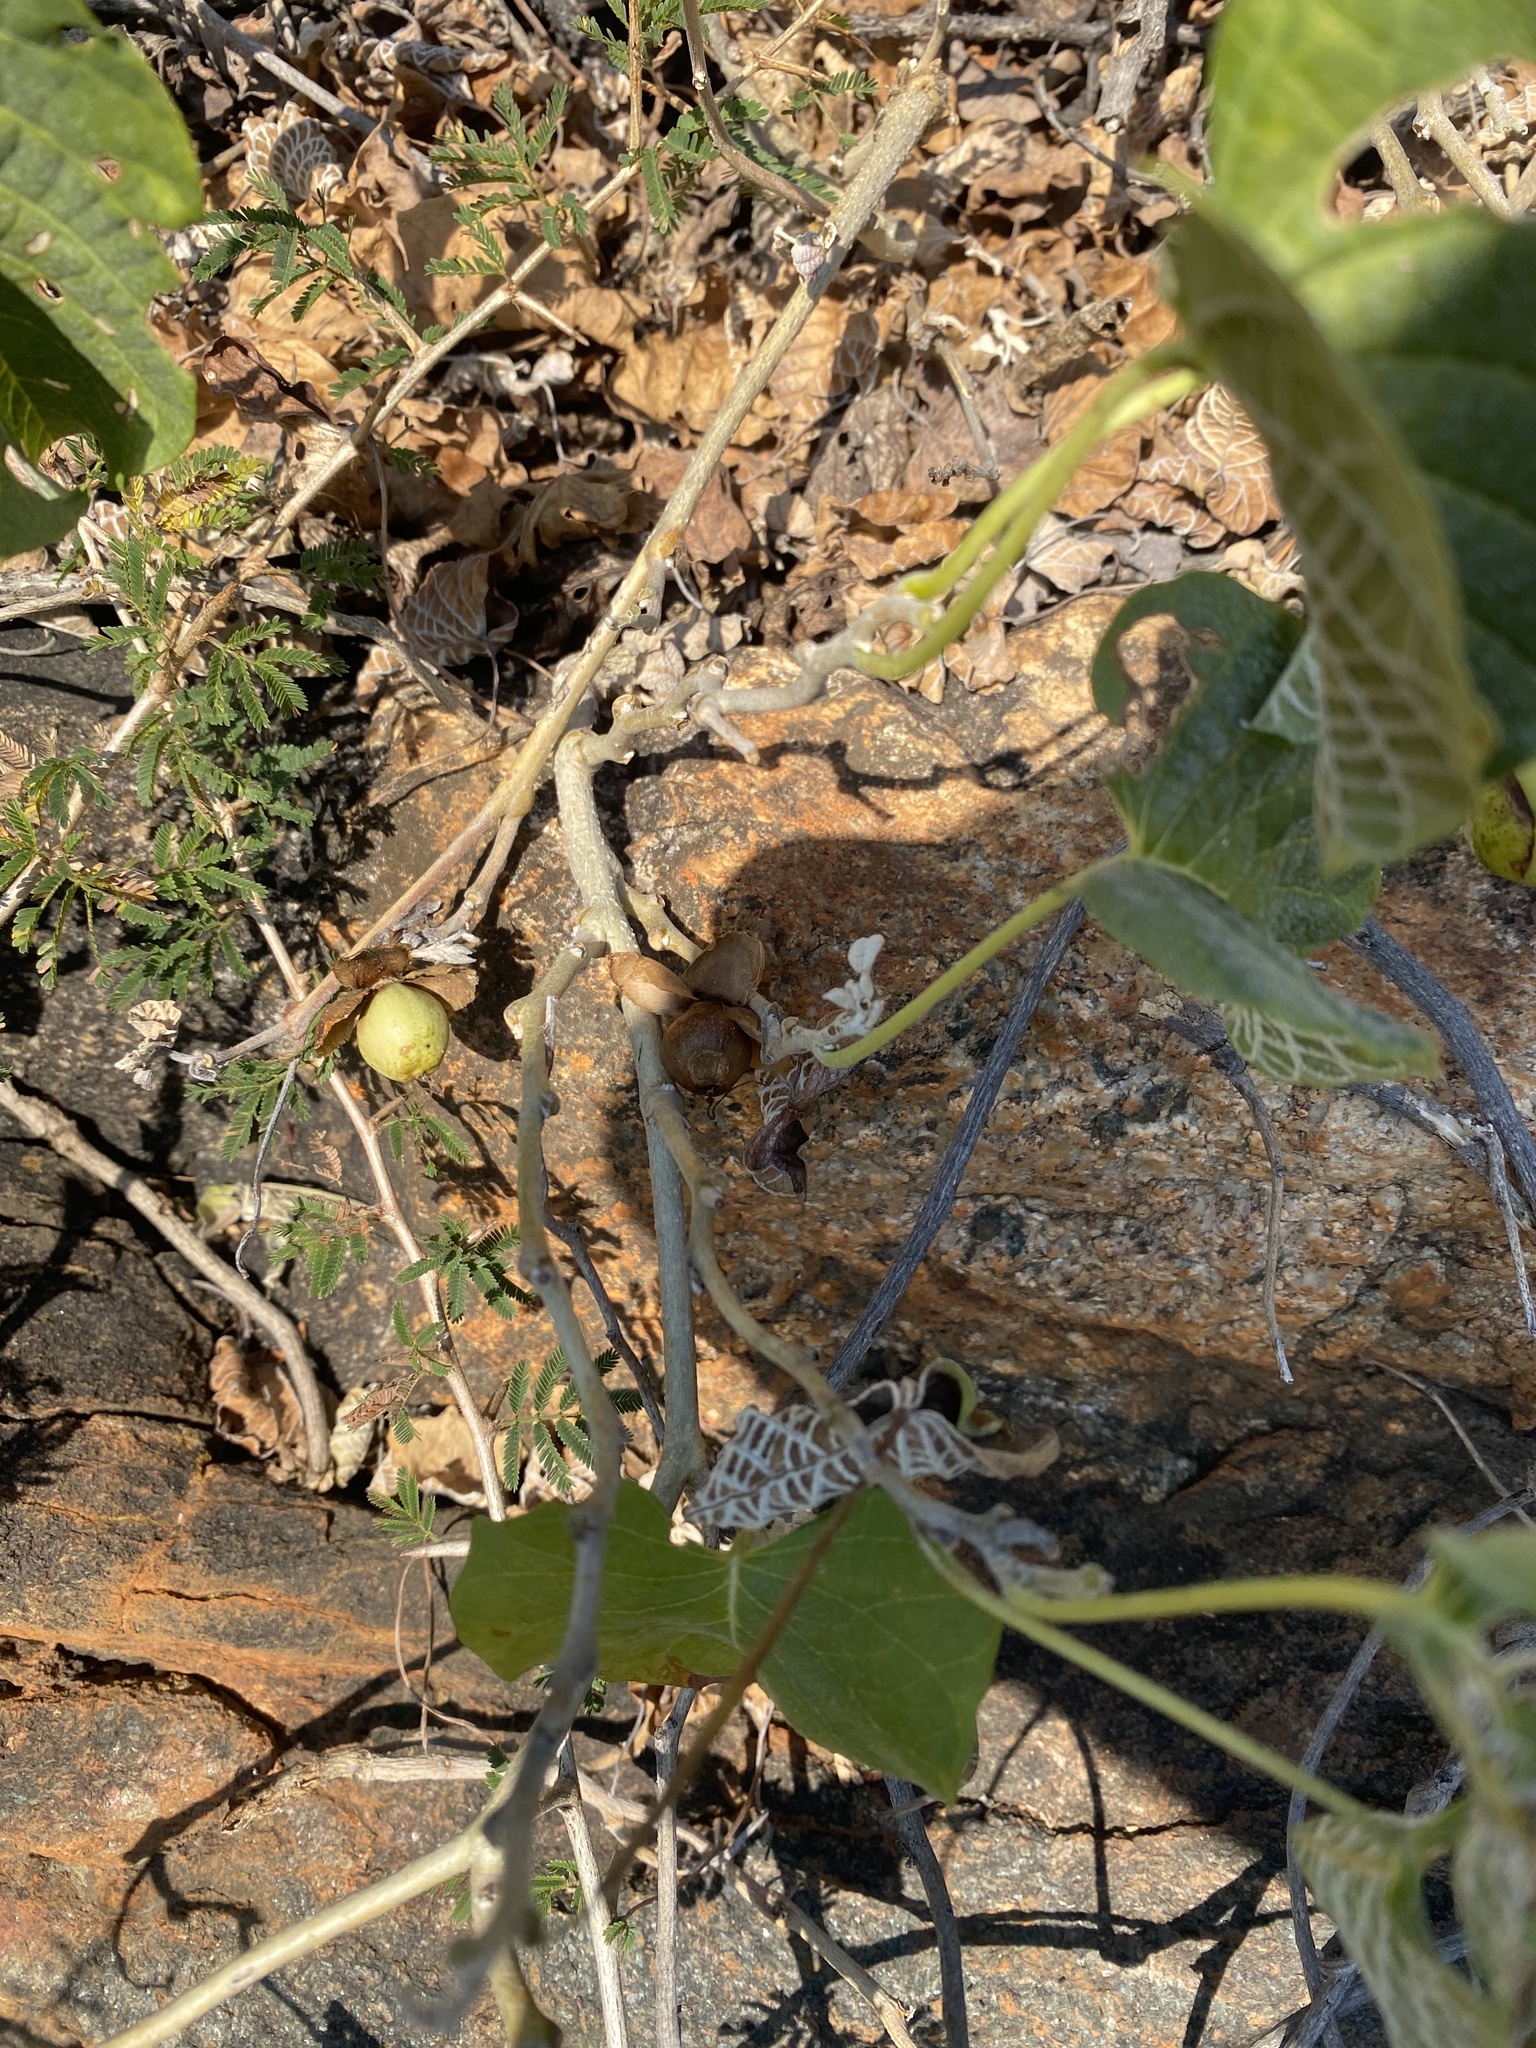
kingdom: Plantae
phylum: Tracheophyta
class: Magnoliopsida
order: Malvales
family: Malvaceae
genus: Gossypium
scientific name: Gossypium herbaceum
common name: Levant cotton
